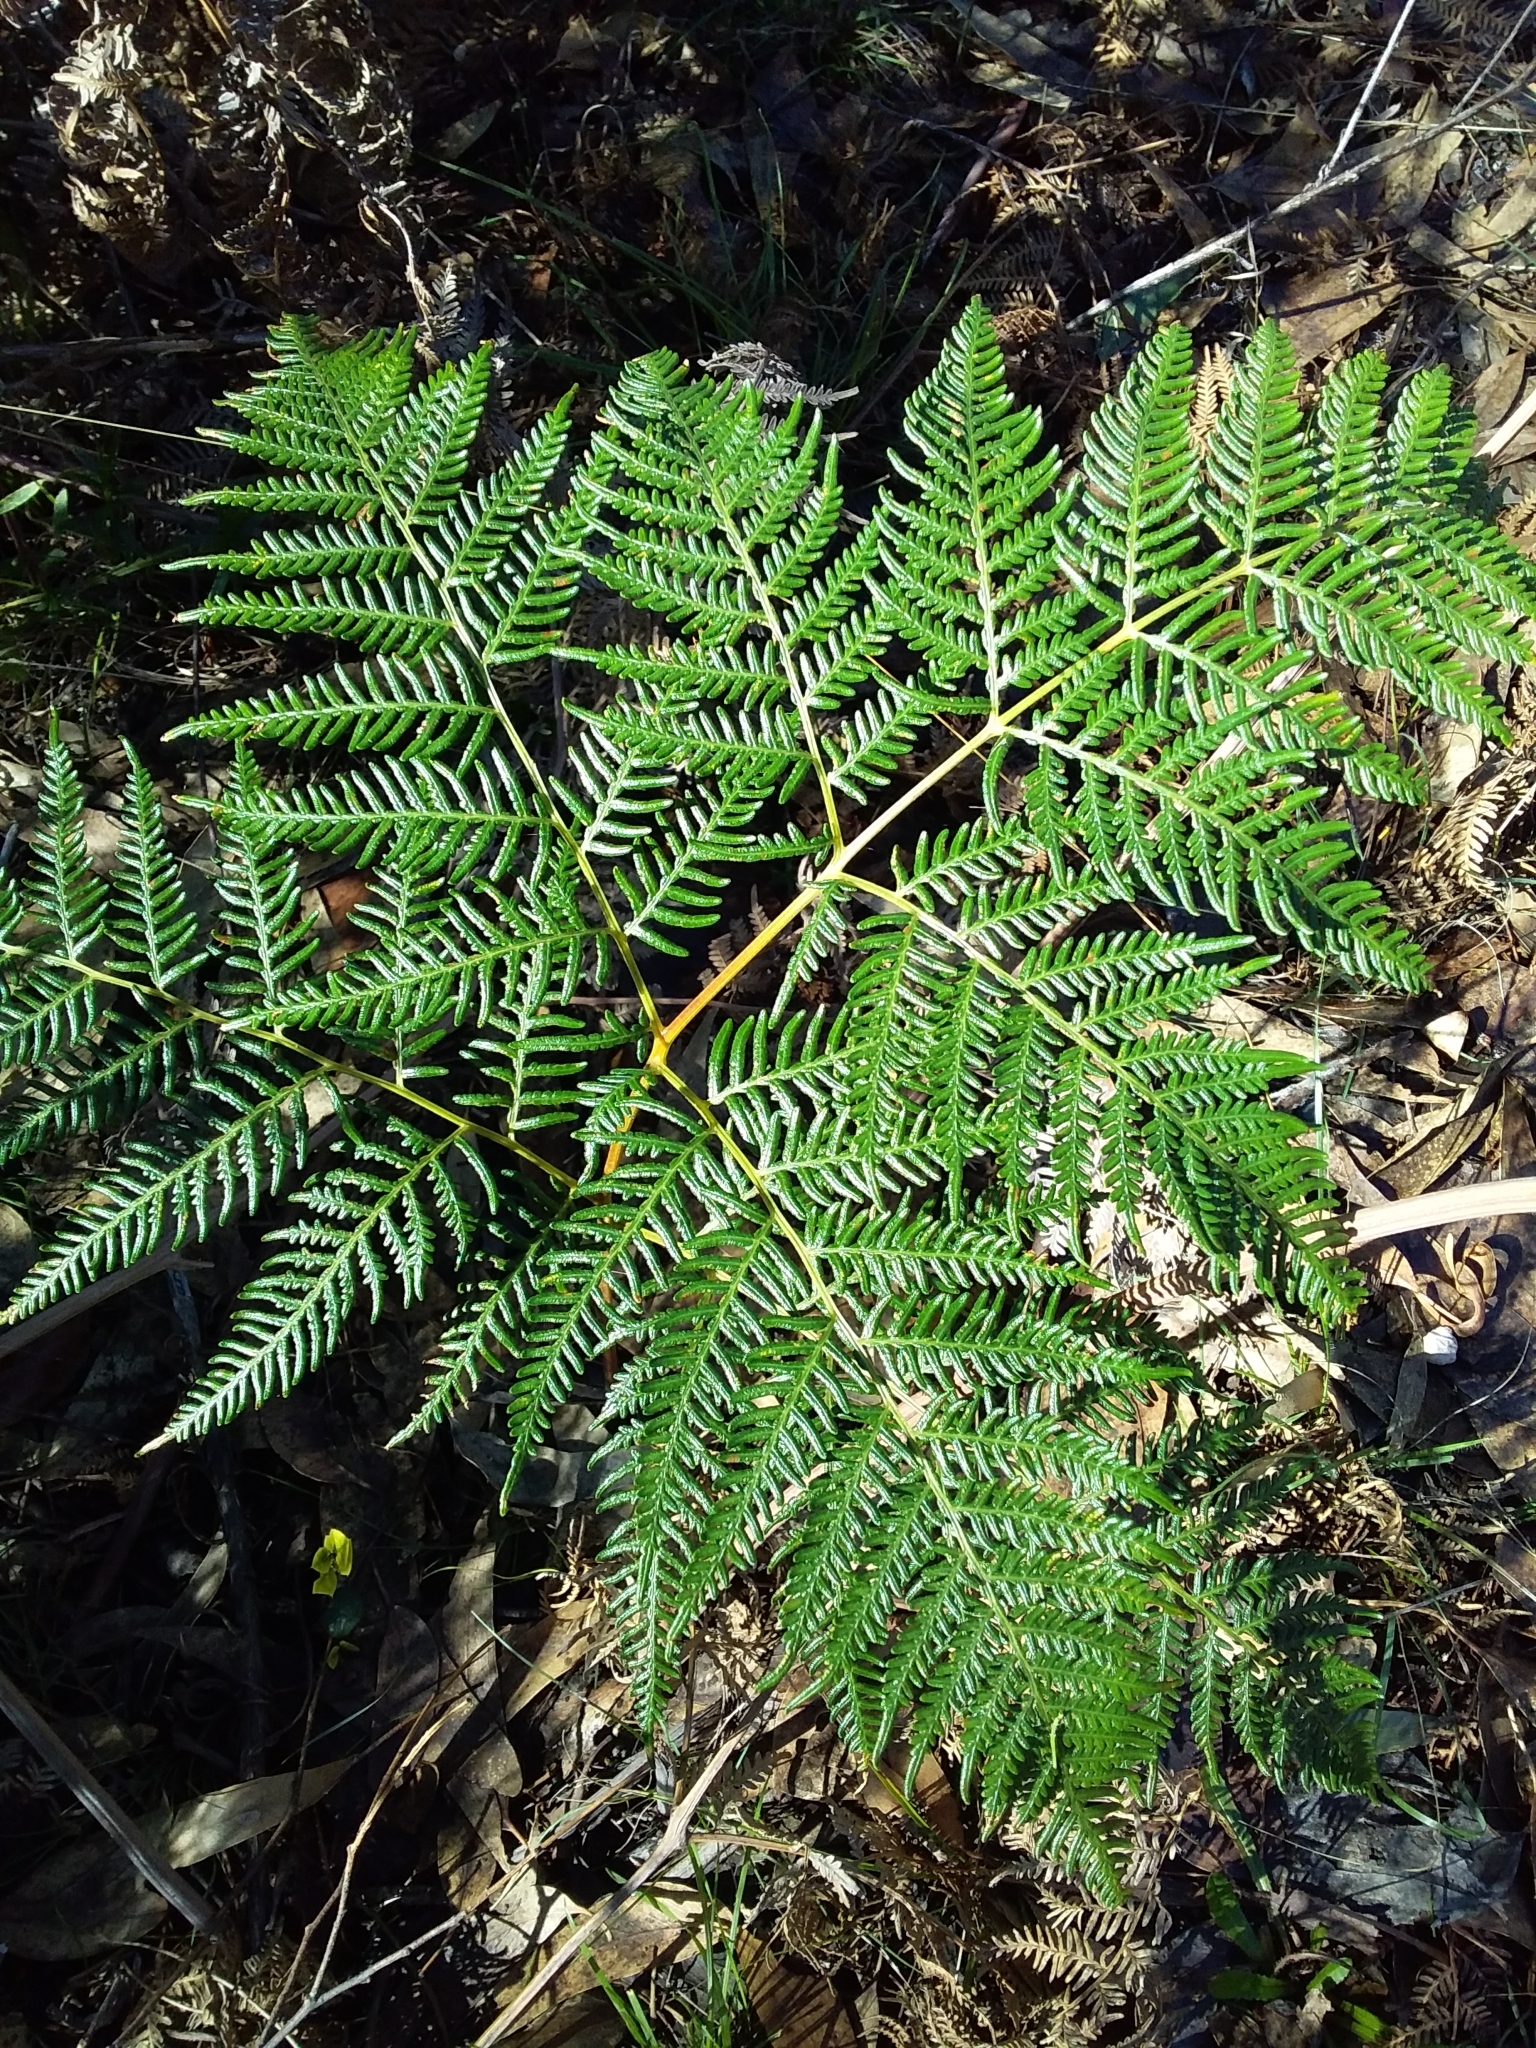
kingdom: Plantae
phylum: Tracheophyta
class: Polypodiopsida
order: Polypodiales
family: Dennstaedtiaceae
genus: Pteridium
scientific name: Pteridium esculentum
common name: Bracken fern
